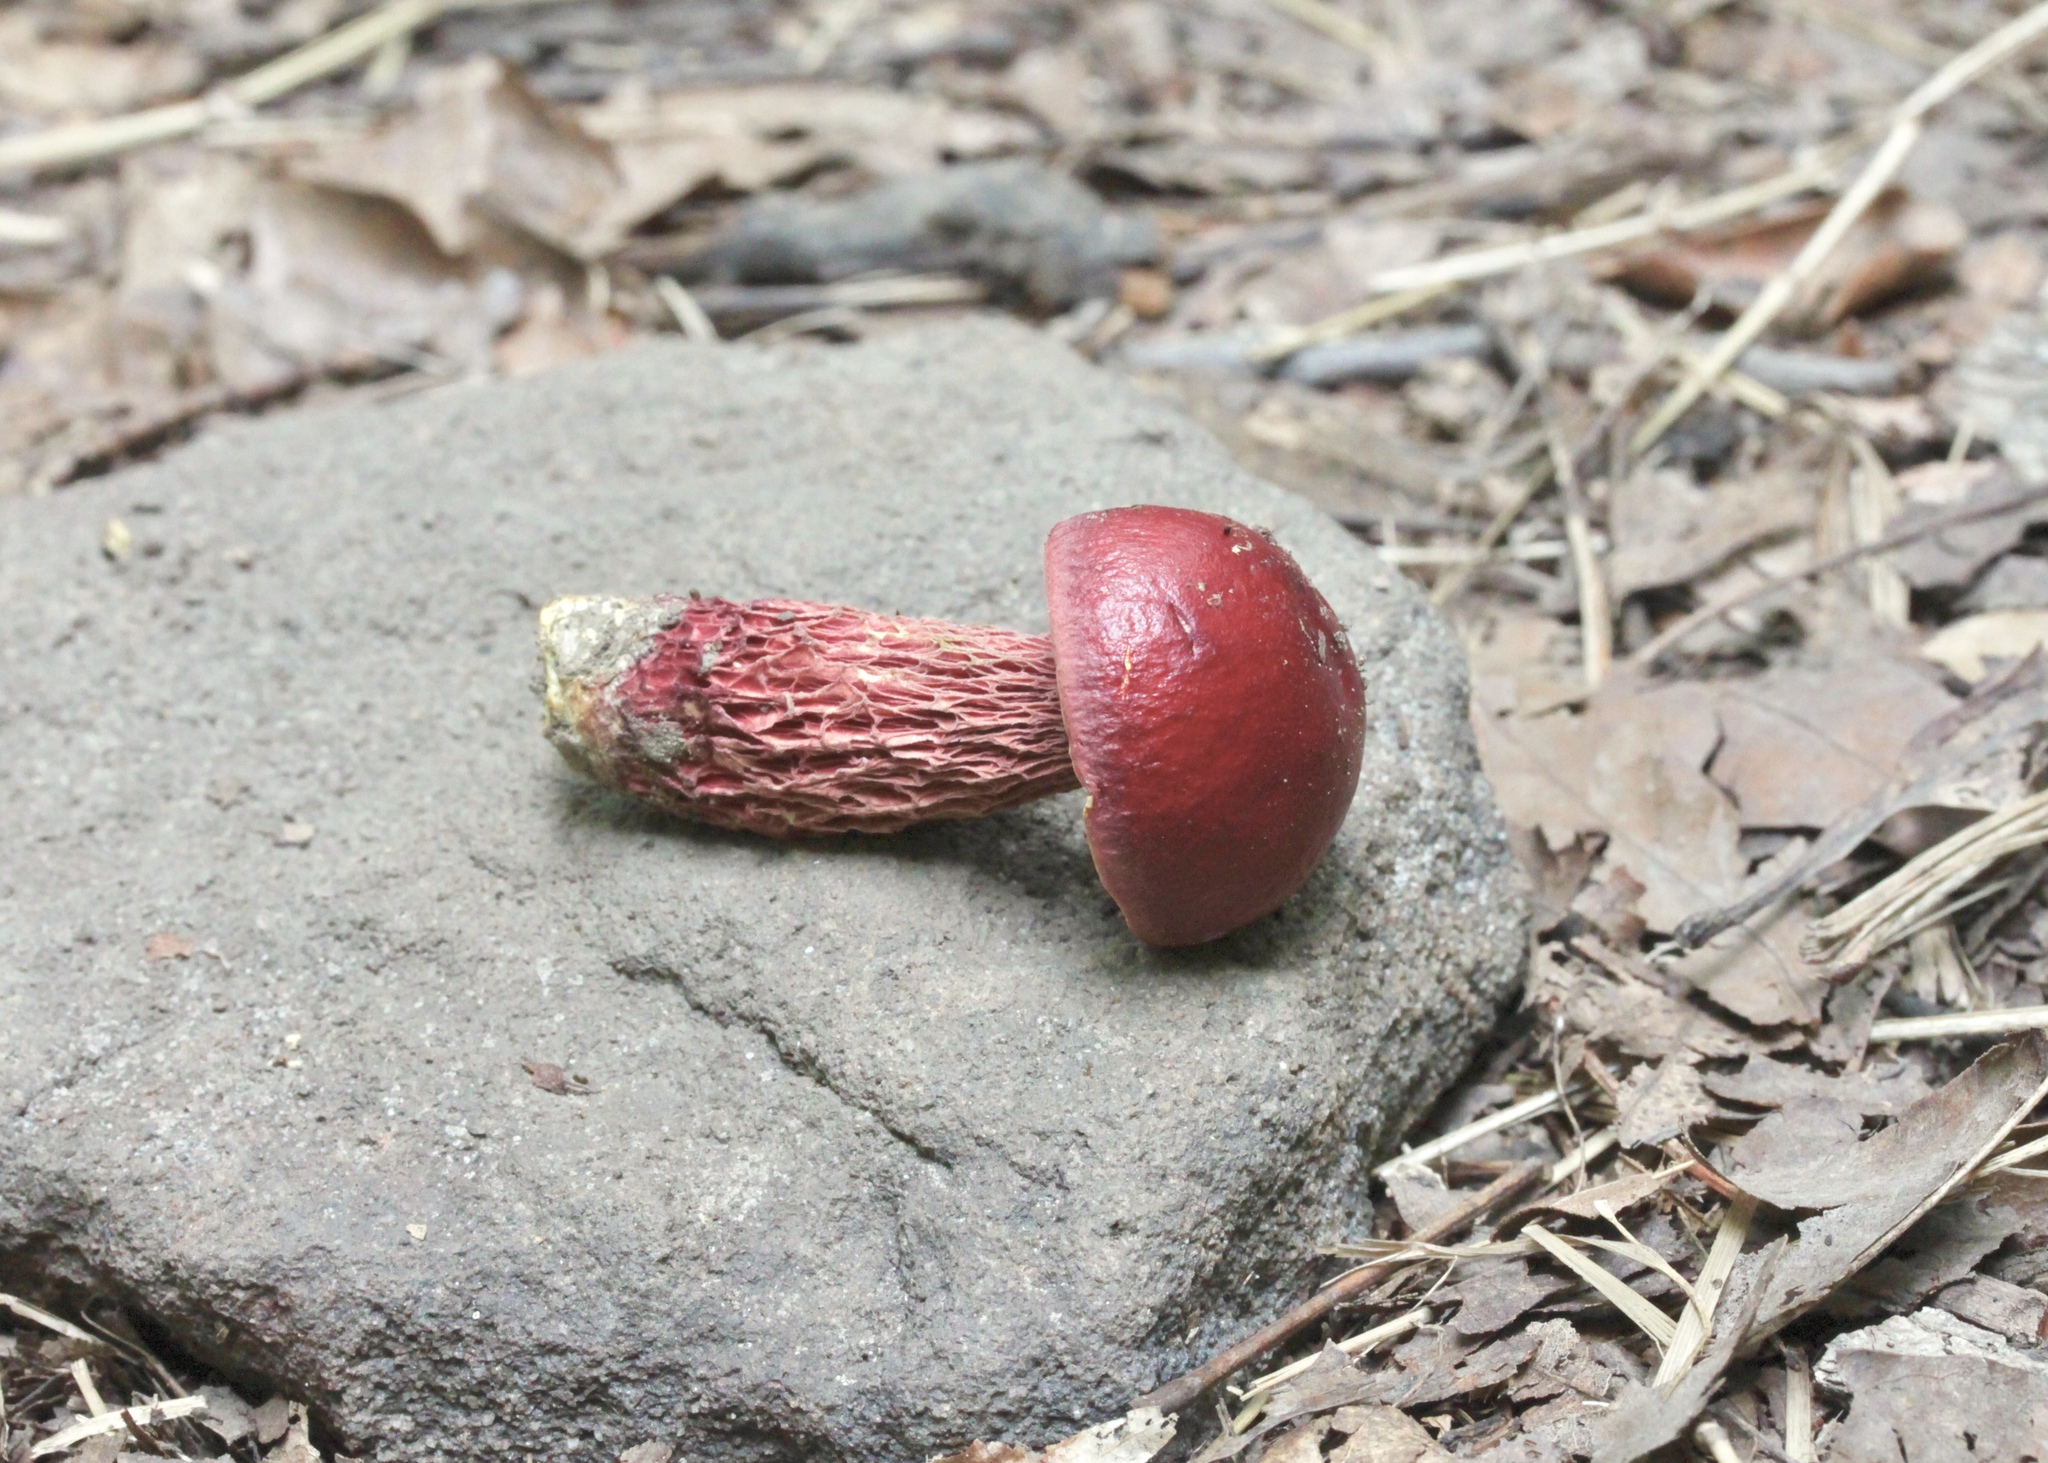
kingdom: Fungi
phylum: Basidiomycota
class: Agaricomycetes
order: Boletales
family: Boletaceae
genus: Butyriboletus
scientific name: Butyriboletus frostii
